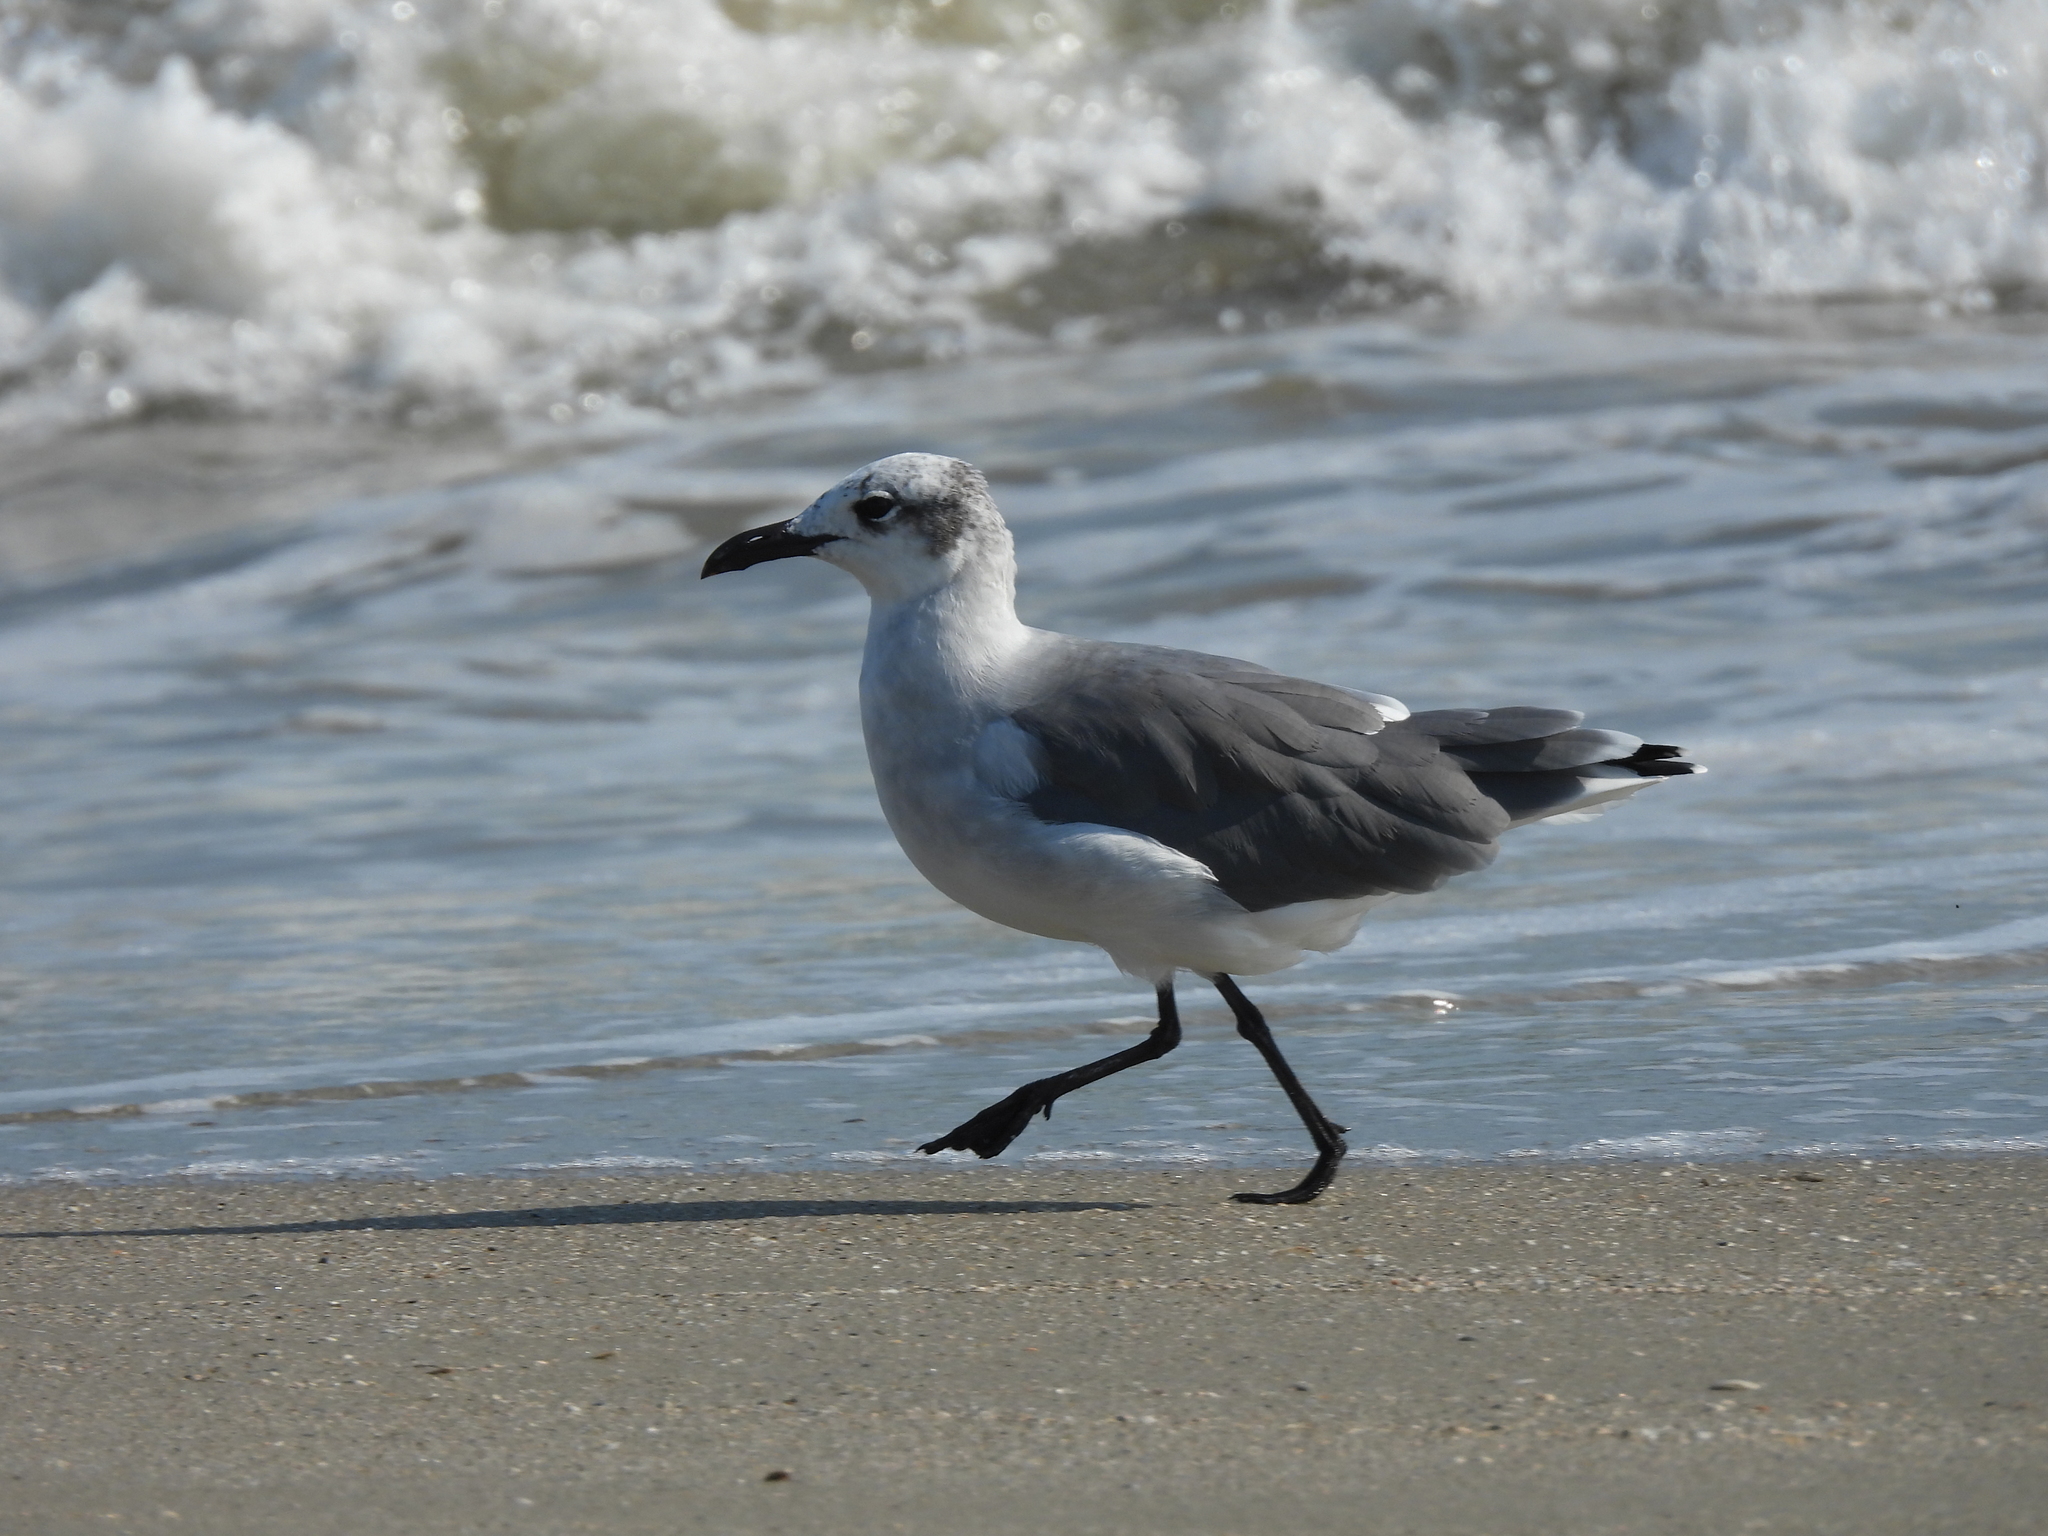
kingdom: Animalia
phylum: Chordata
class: Aves
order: Charadriiformes
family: Laridae
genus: Leucophaeus
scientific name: Leucophaeus atricilla
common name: Laughing gull
